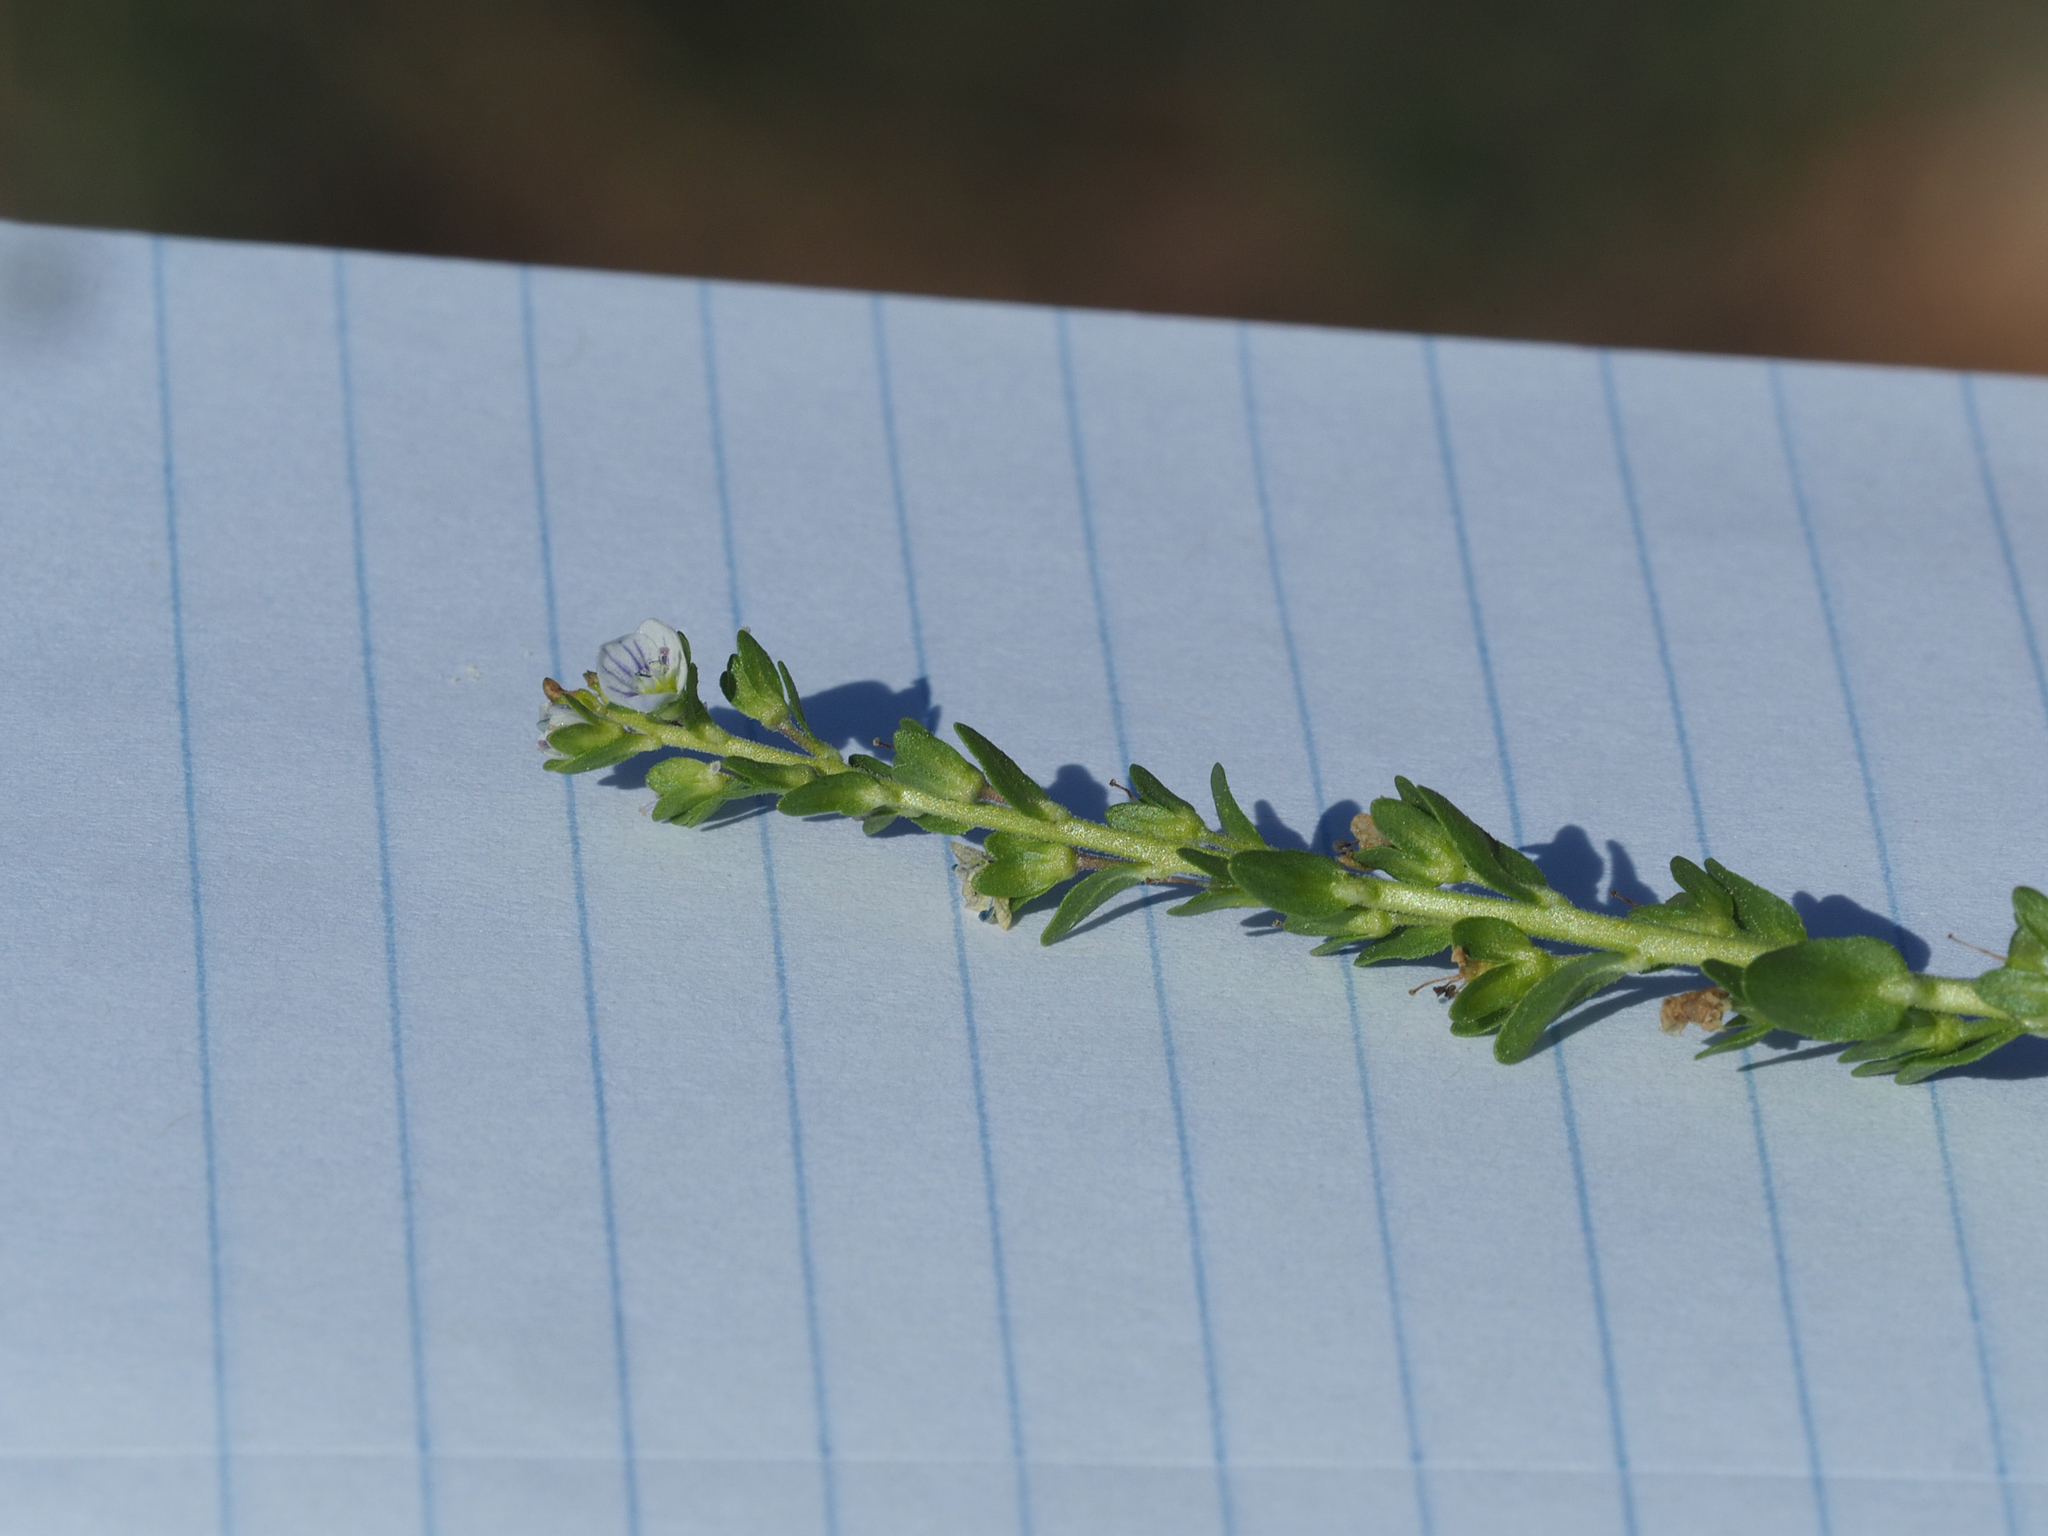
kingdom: Plantae
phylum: Tracheophyta
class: Magnoliopsida
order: Lamiales
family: Plantaginaceae
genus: Veronica
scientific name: Veronica serpyllifolia
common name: Thyme-leaved speedwell
